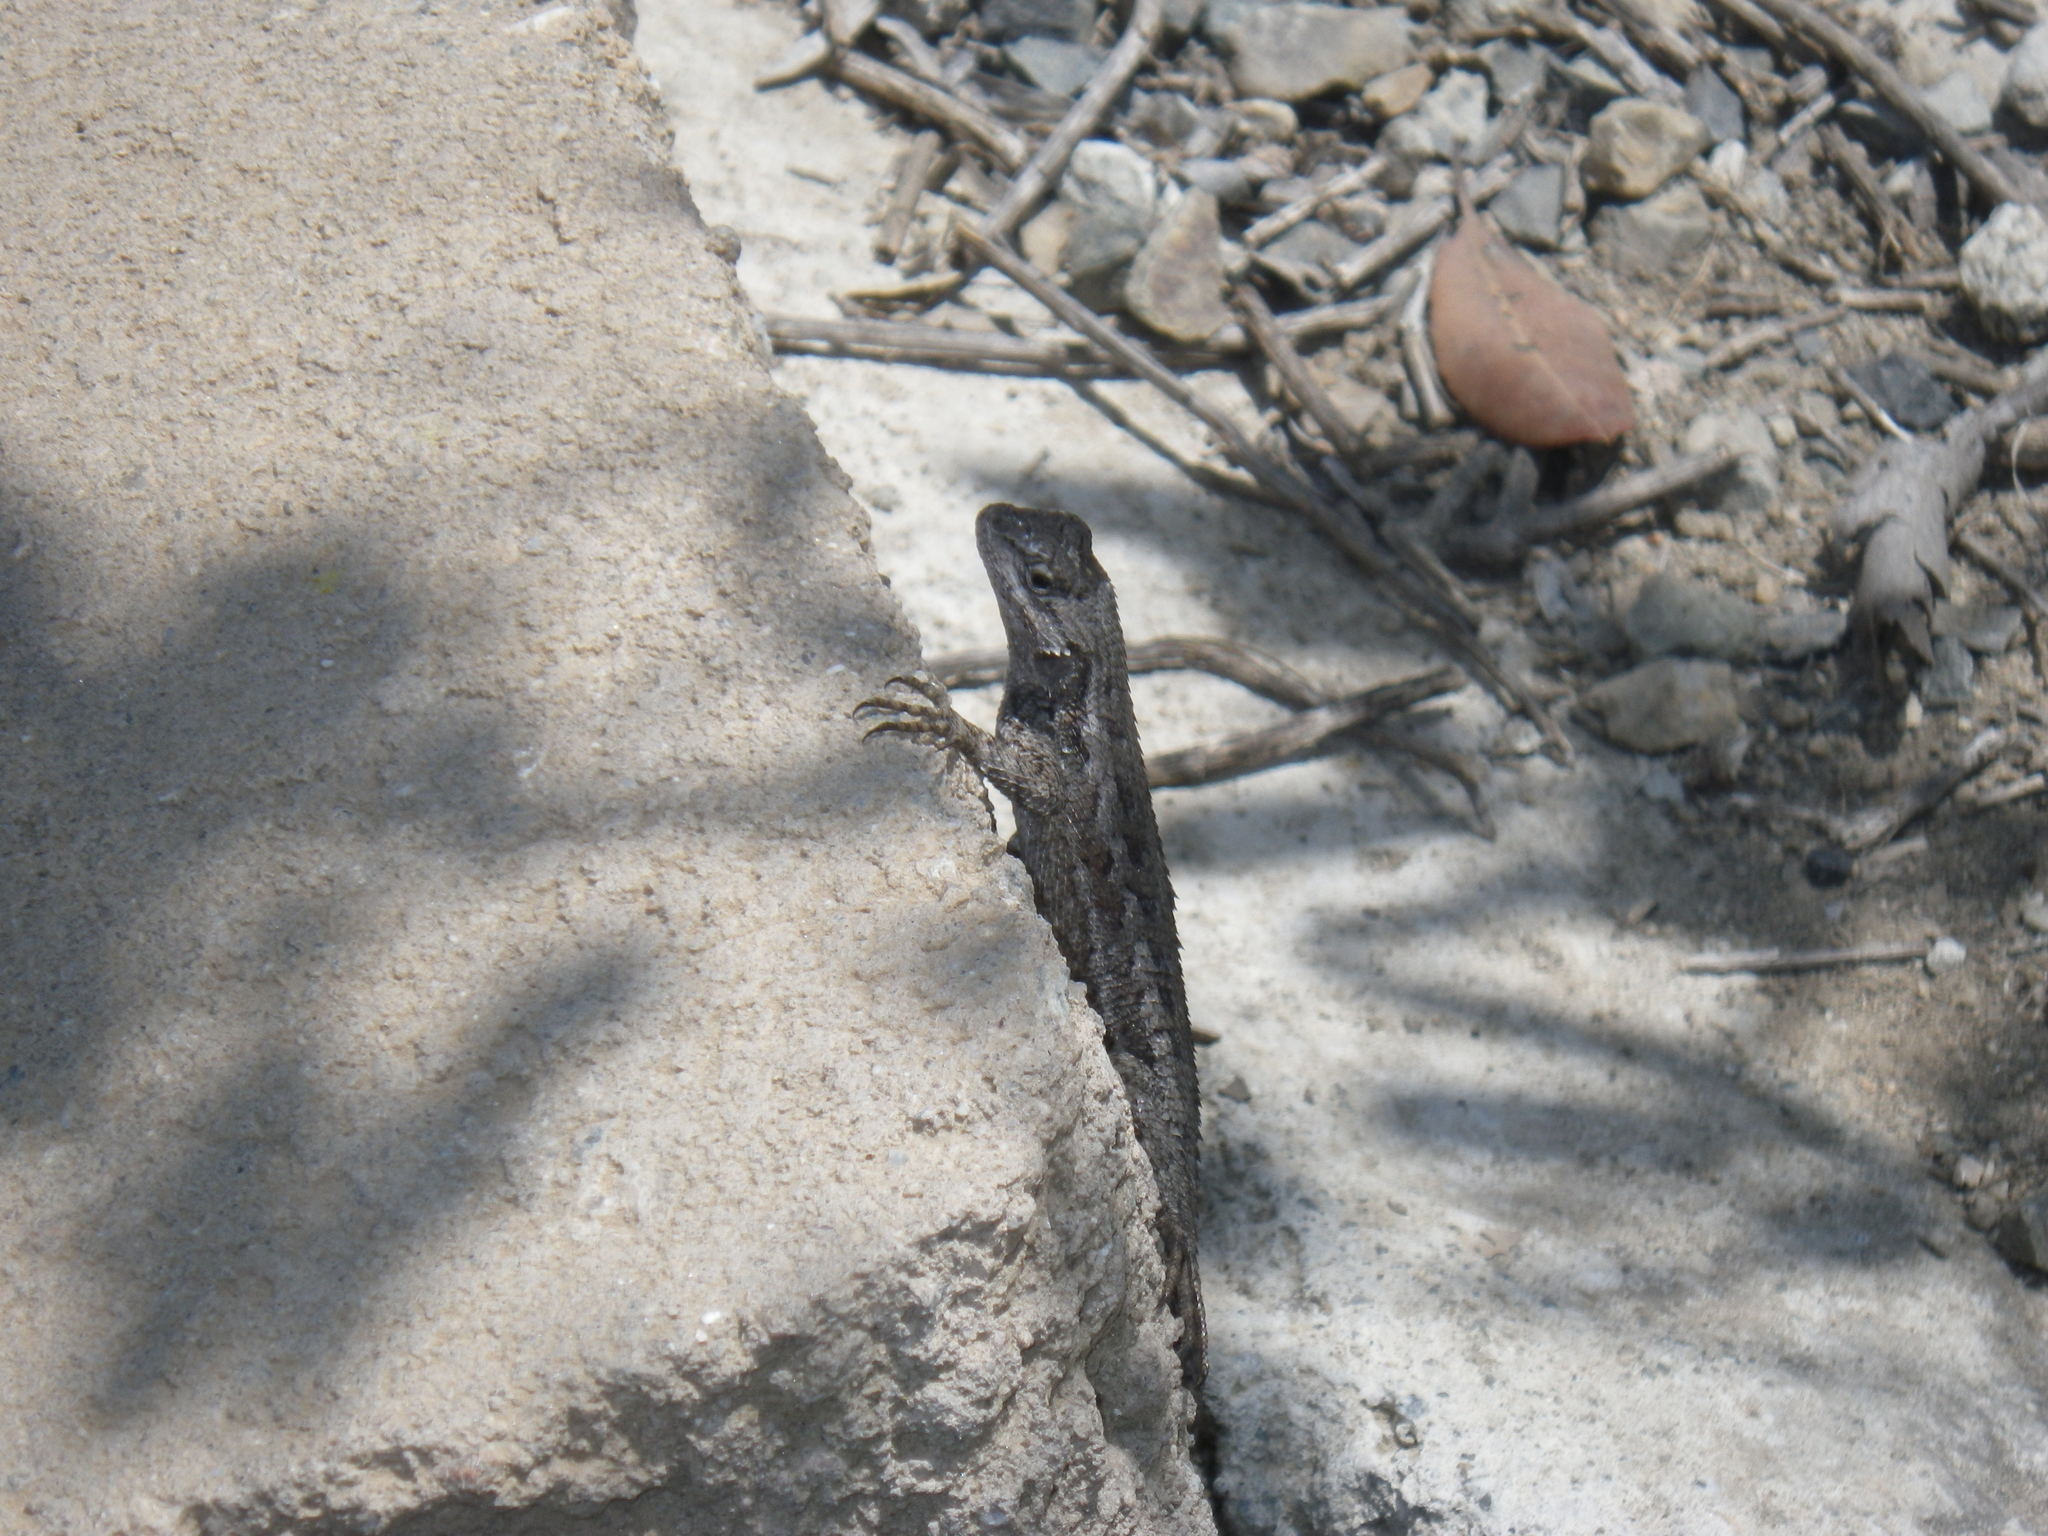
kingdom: Animalia
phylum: Chordata
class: Squamata
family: Phrynosomatidae
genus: Sceloporus
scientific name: Sceloporus occidentalis
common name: Western fence lizard
